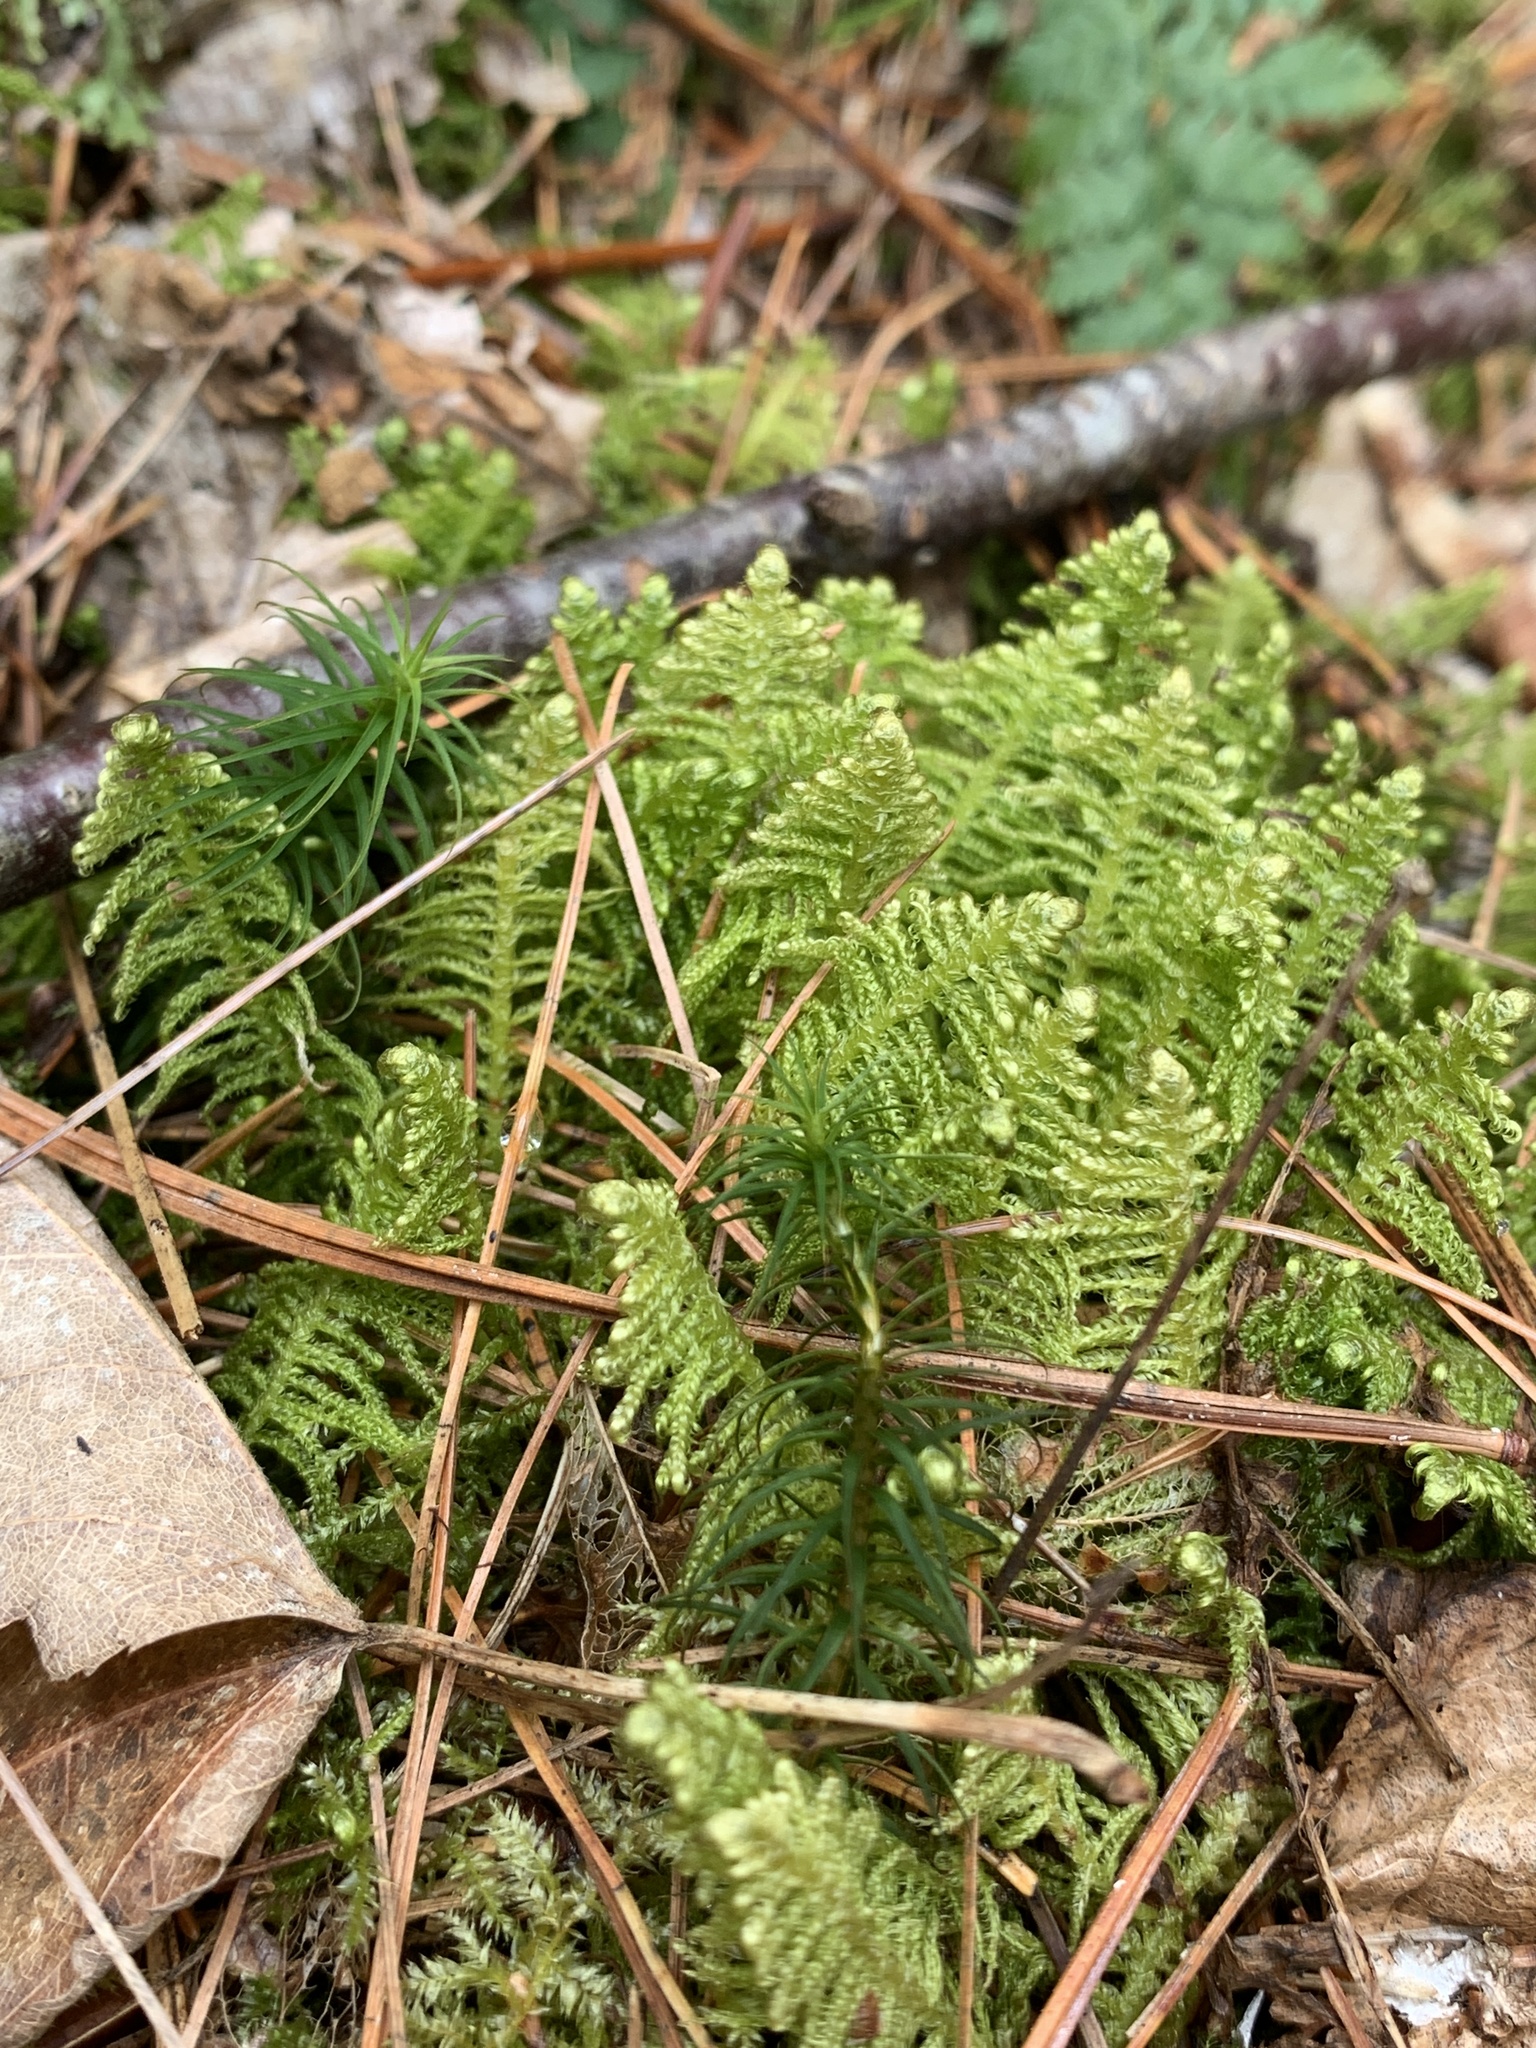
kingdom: Plantae
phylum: Bryophyta
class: Bryopsida
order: Hypnales
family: Pylaisiaceae
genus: Ptilium
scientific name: Ptilium crista-castrensis
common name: Knight's plume moss
